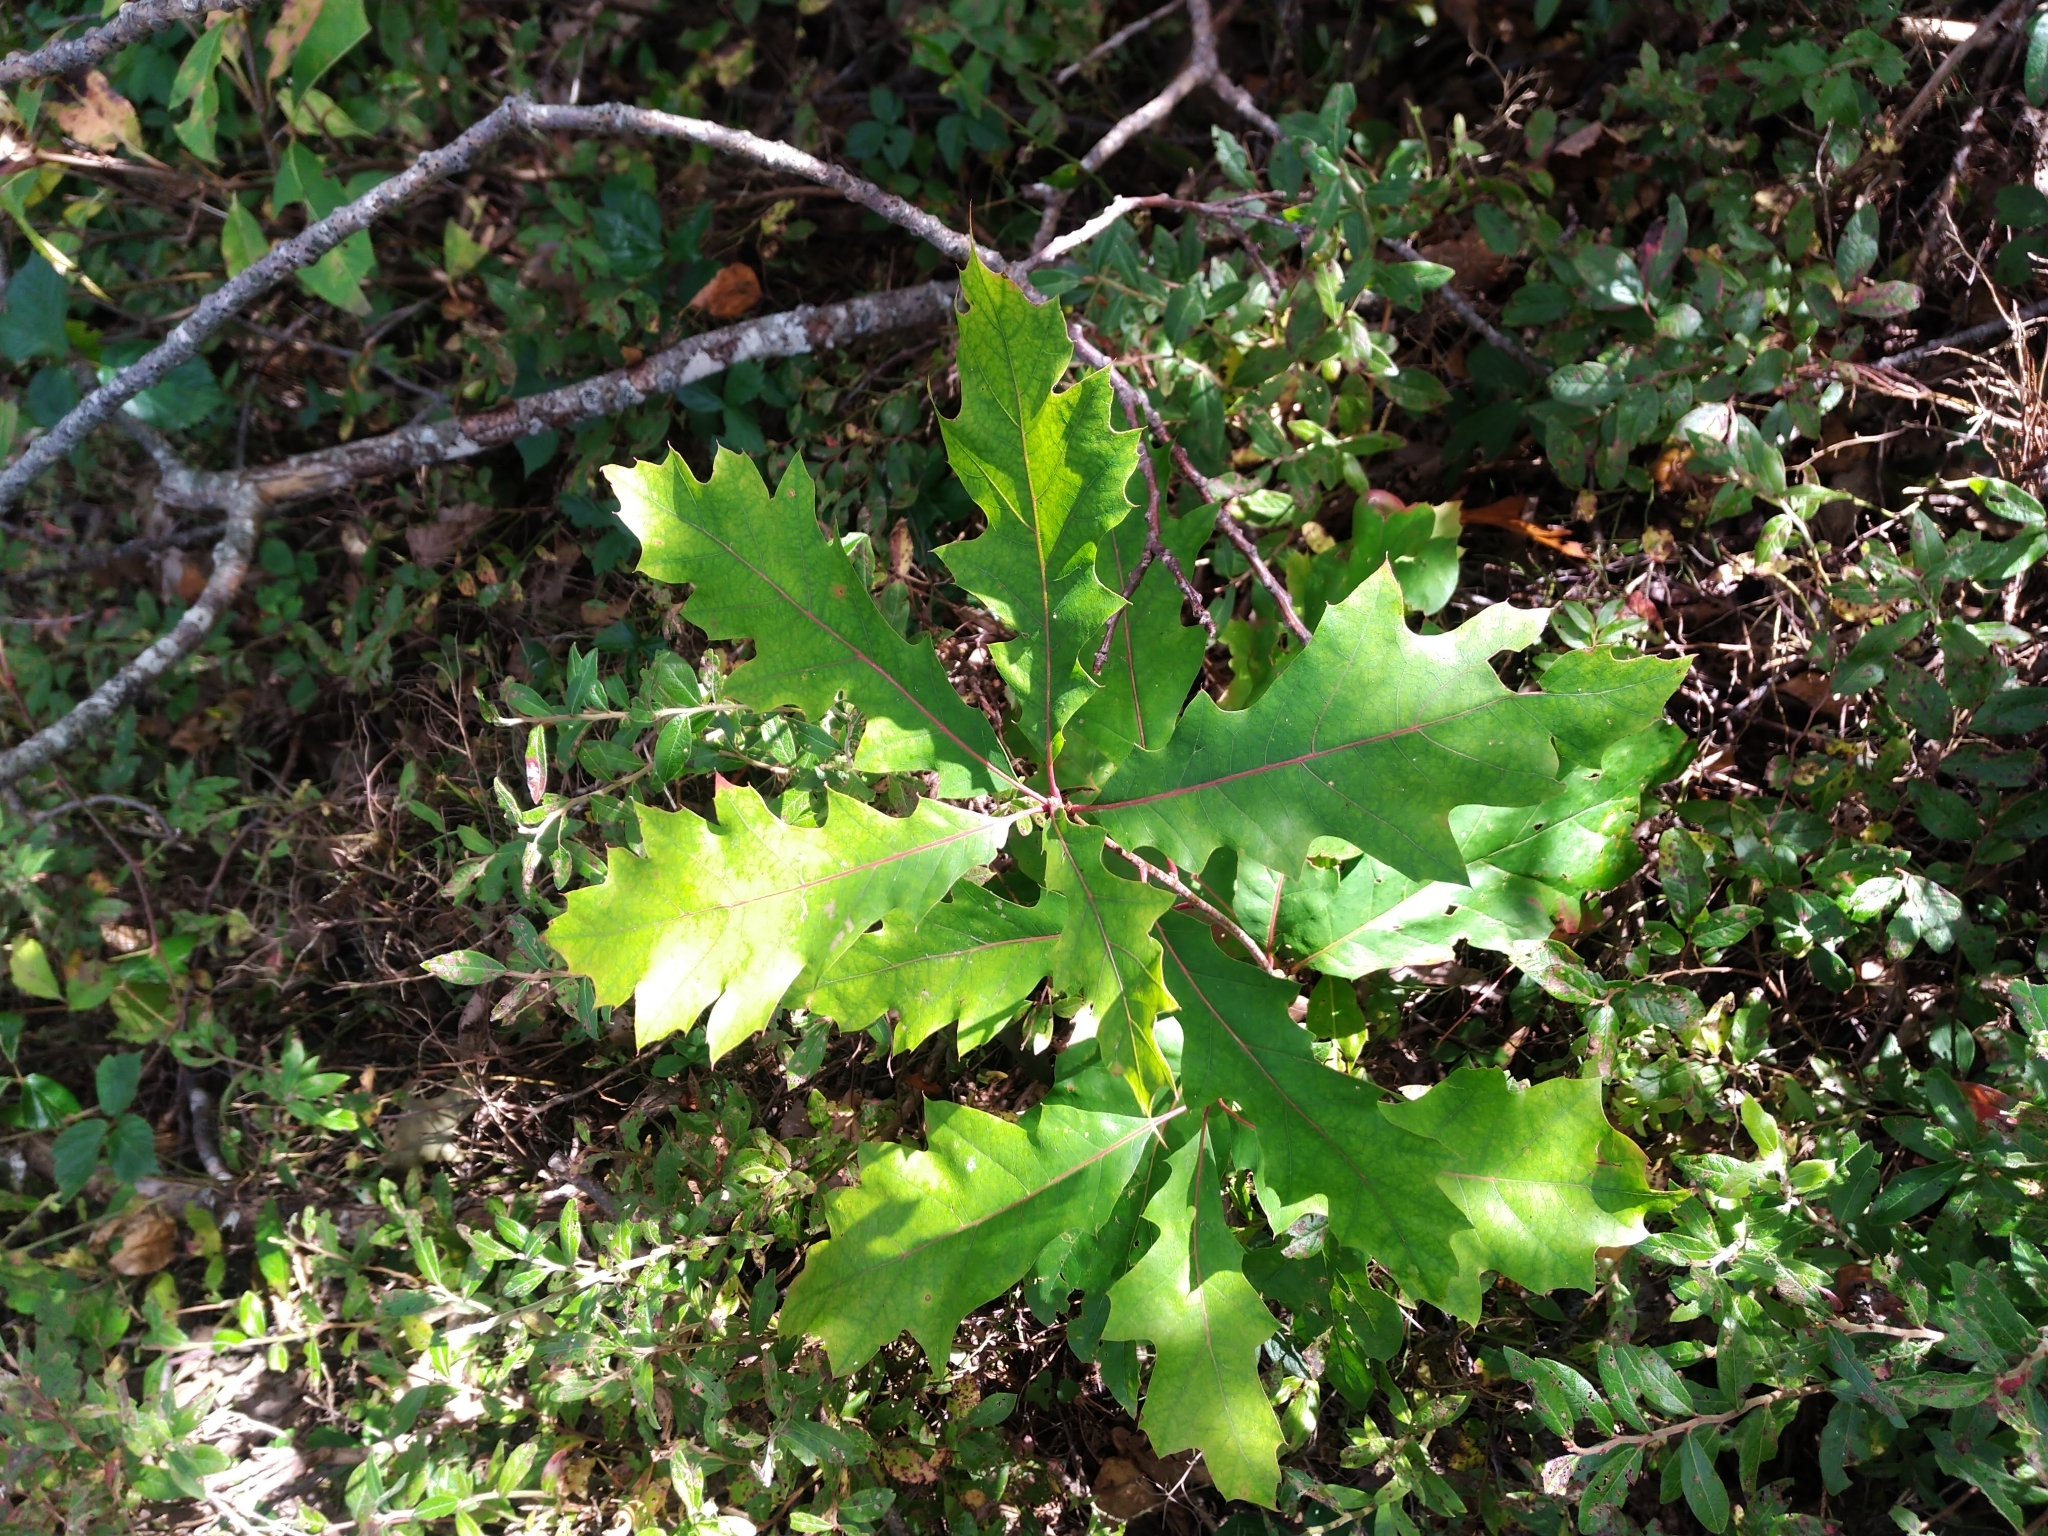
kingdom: Plantae
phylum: Tracheophyta
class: Magnoliopsida
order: Fagales
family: Fagaceae
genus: Quercus
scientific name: Quercus rubra
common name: Red oak
